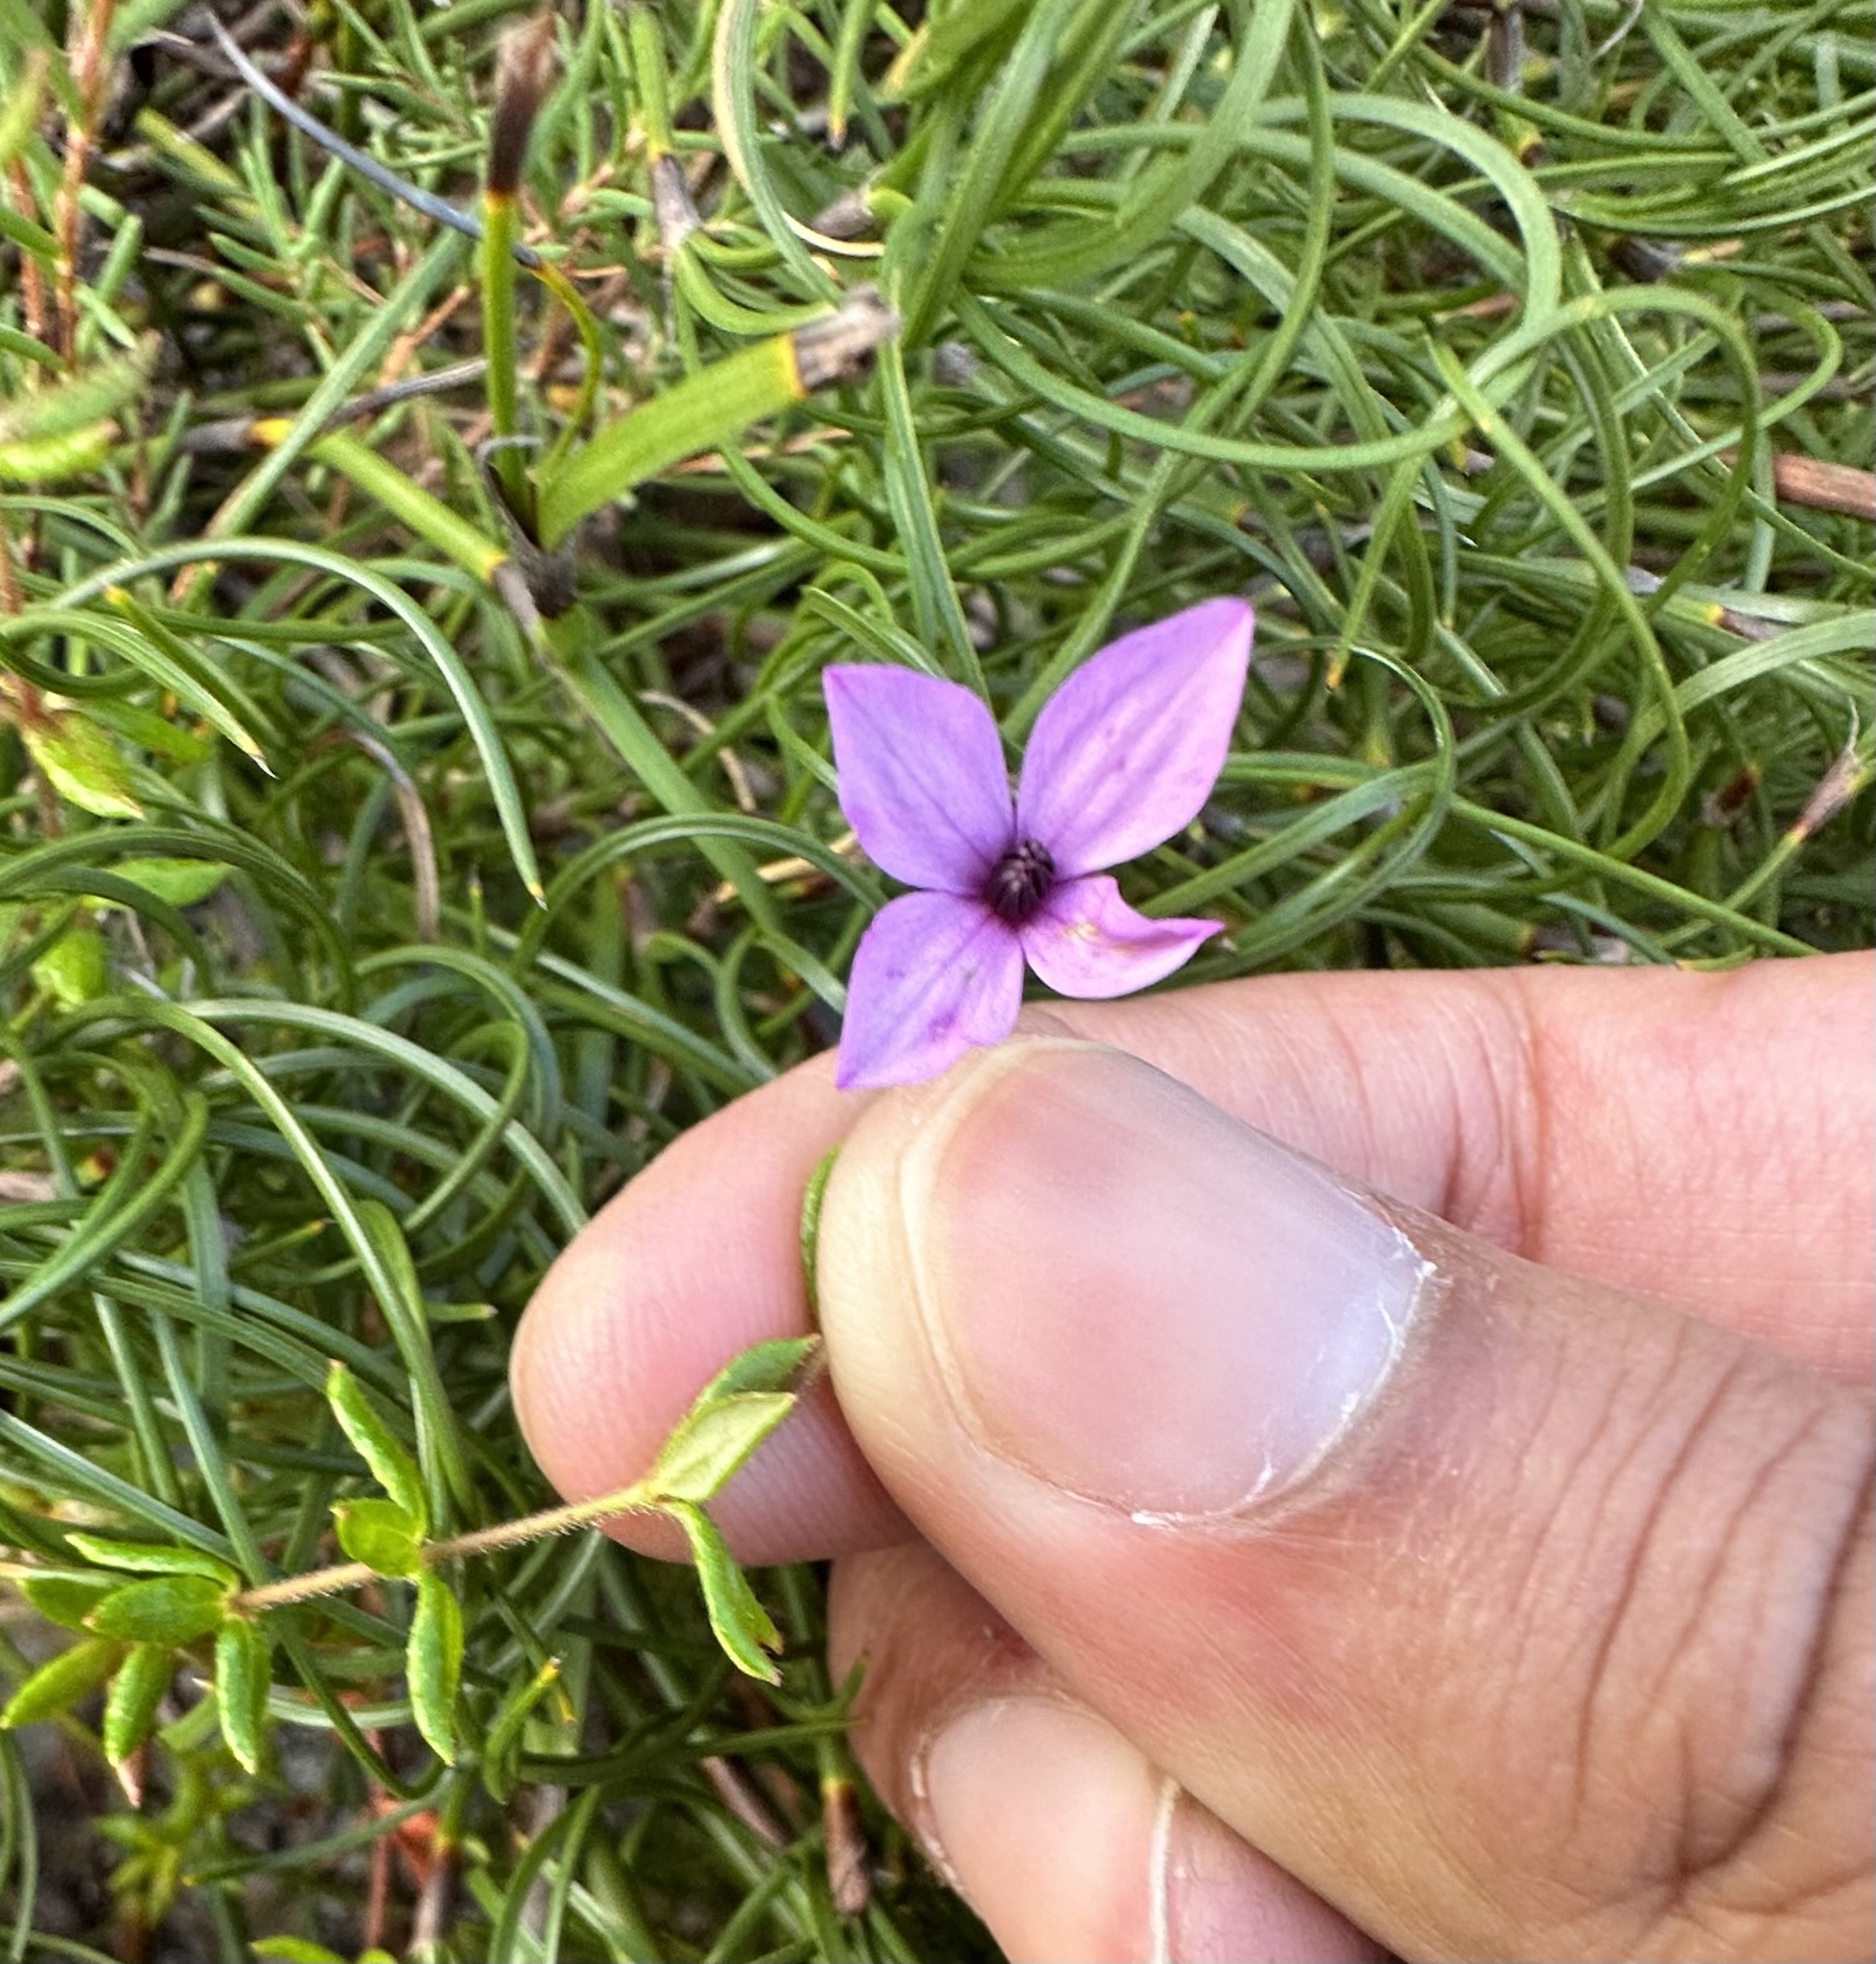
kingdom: Plantae
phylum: Tracheophyta
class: Magnoliopsida
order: Oxalidales
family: Elaeocarpaceae
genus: Tetratheca
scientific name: Tetratheca thymifolia
